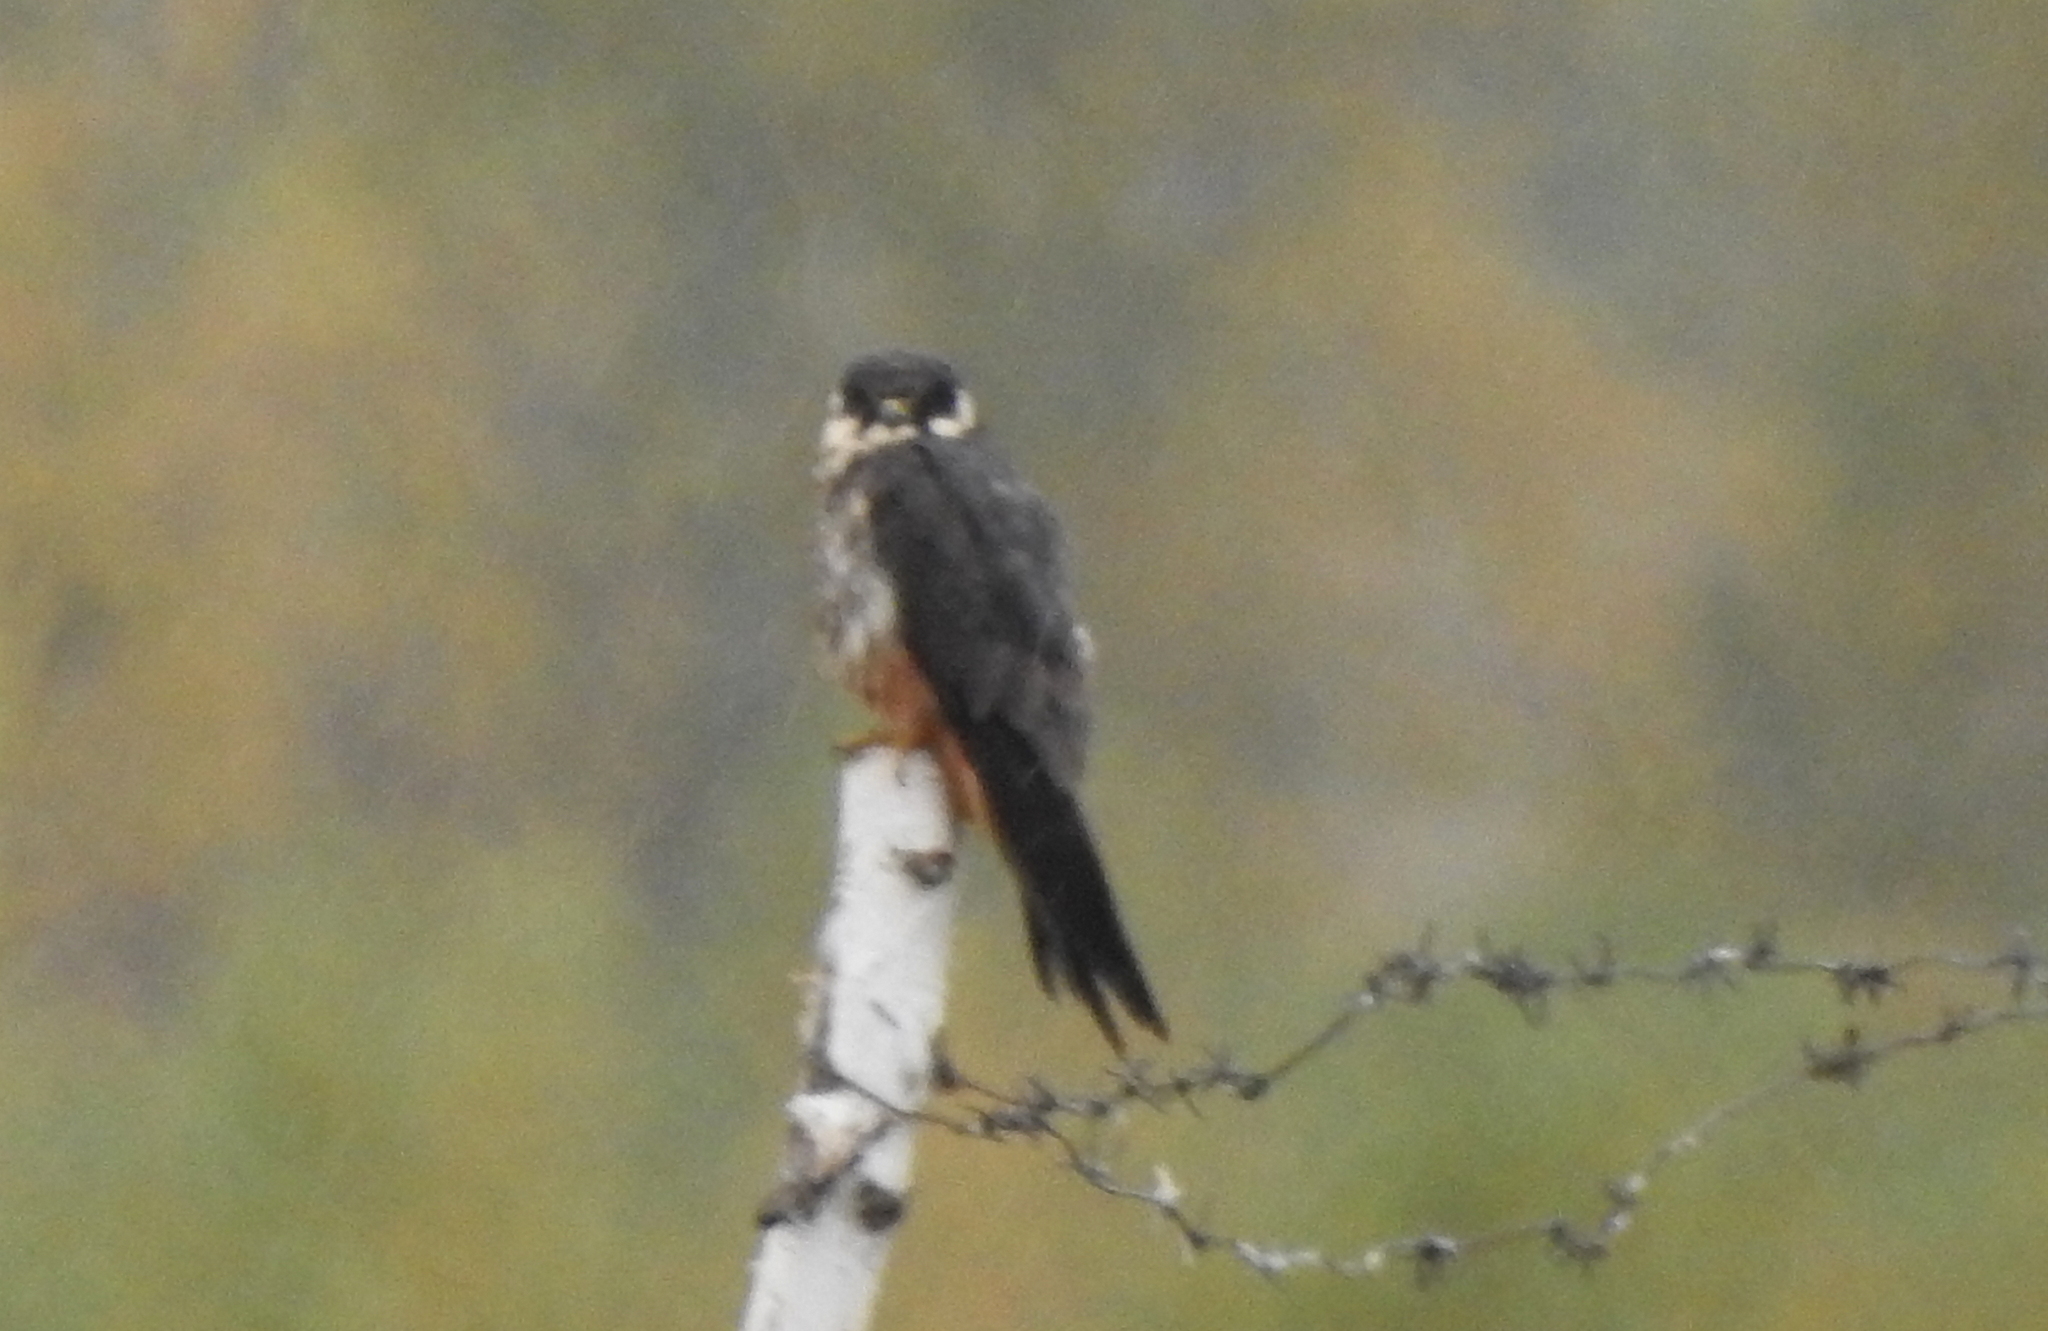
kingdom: Animalia
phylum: Chordata
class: Aves
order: Falconiformes
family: Falconidae
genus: Falco
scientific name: Falco subbuteo
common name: Eurasian hobby
